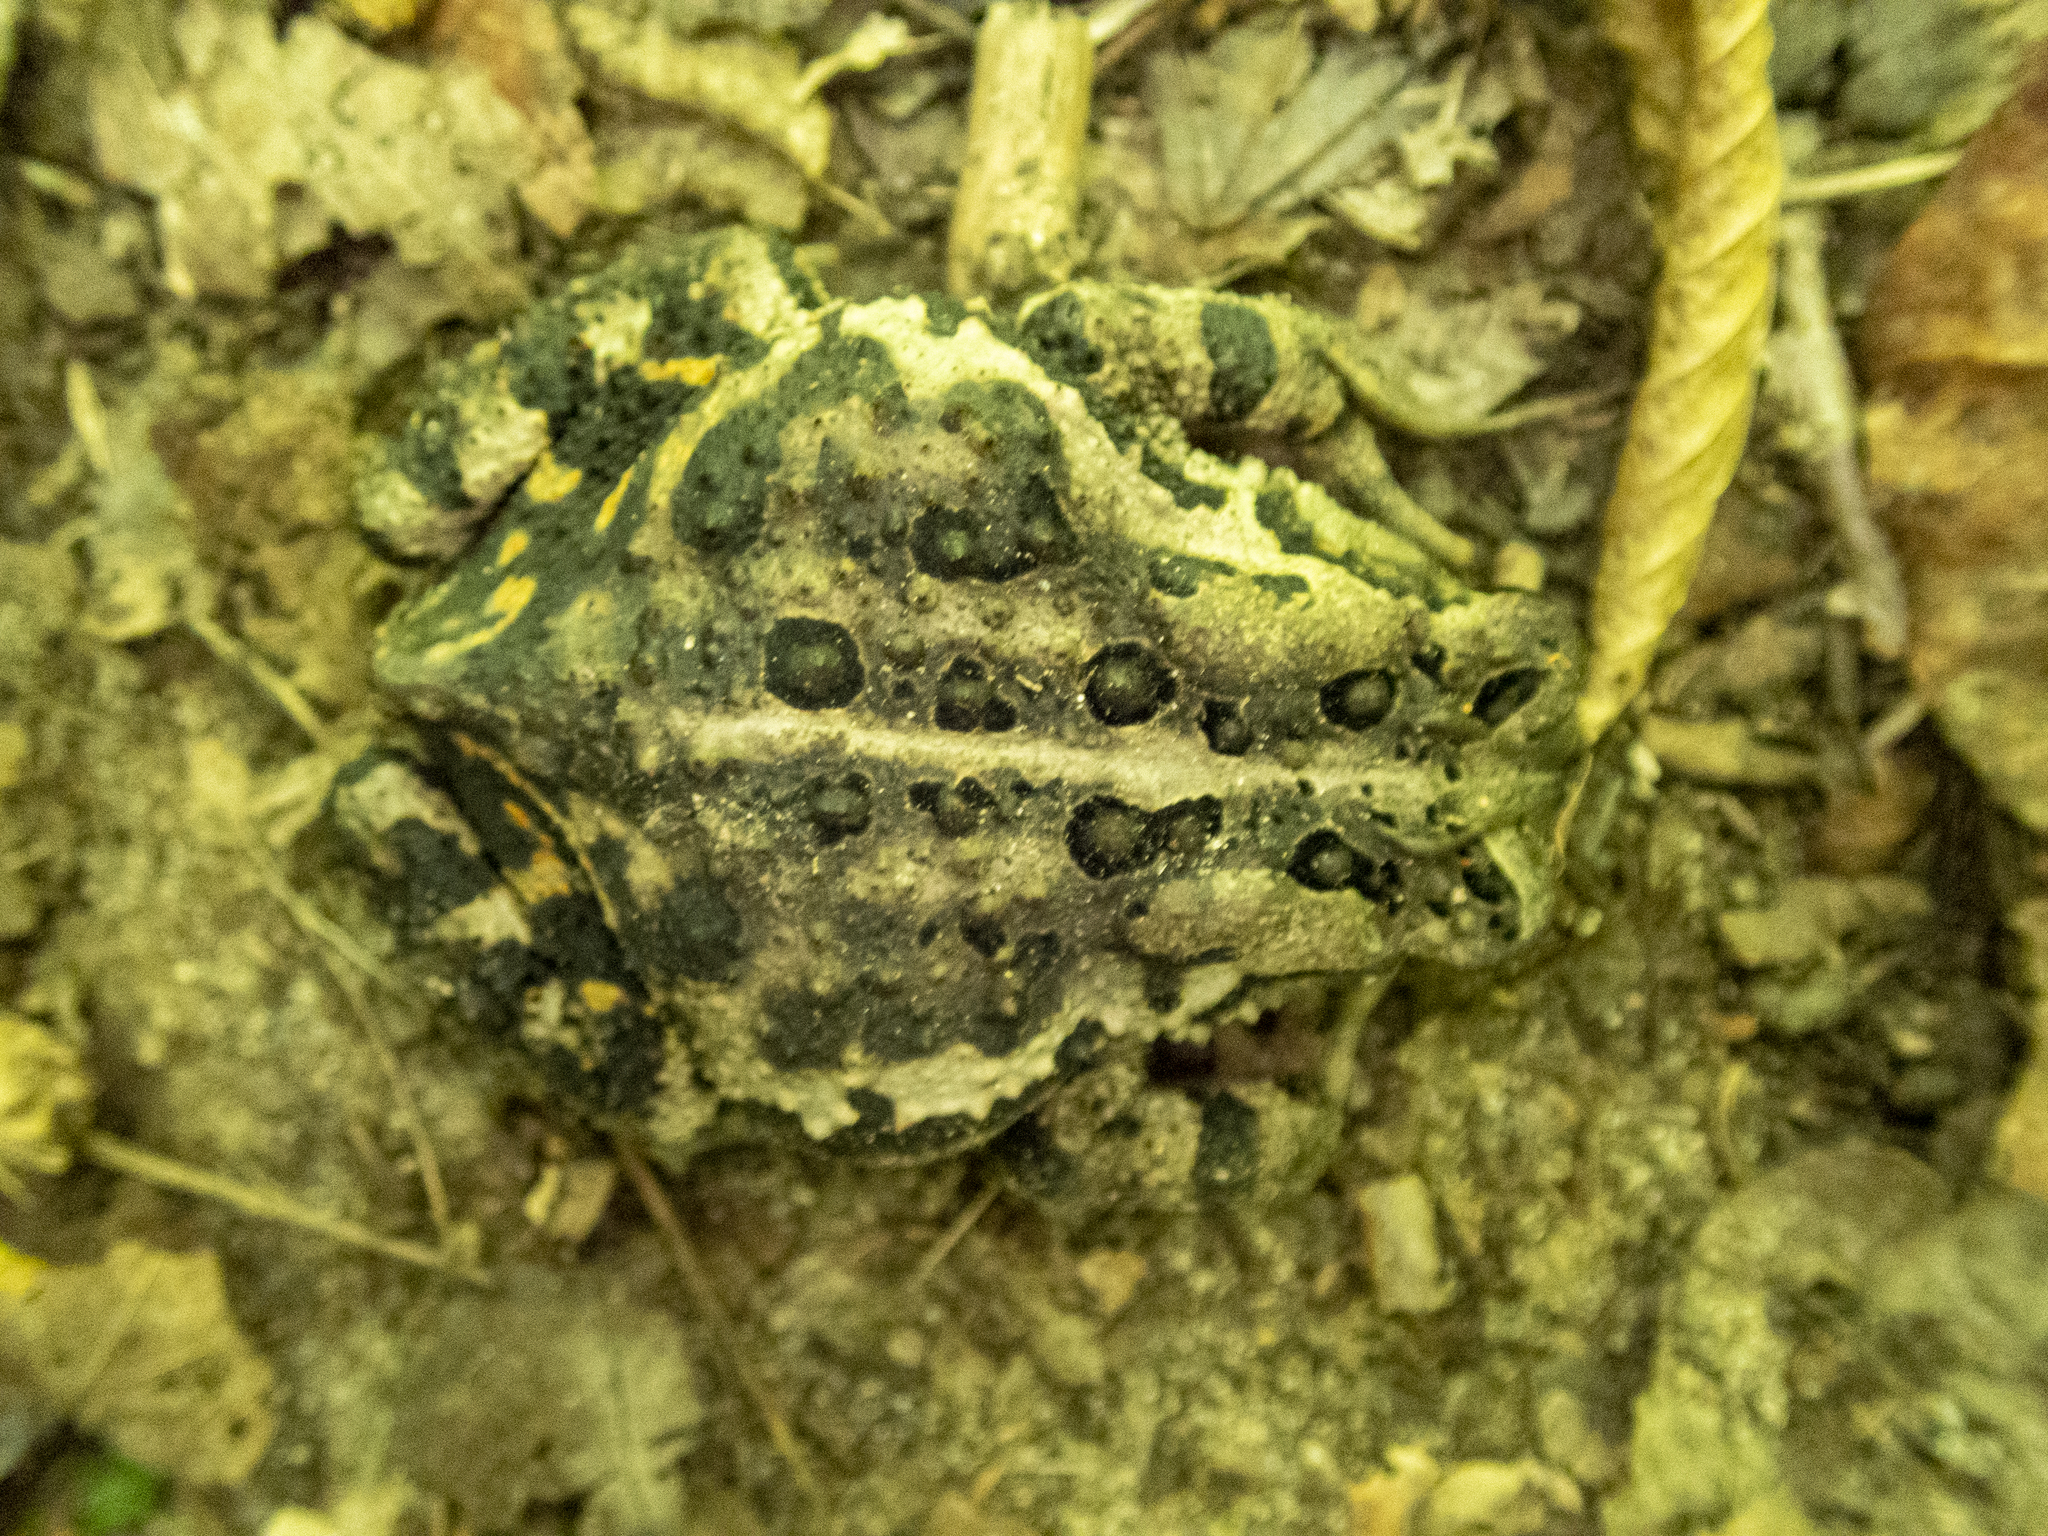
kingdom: Animalia
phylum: Chordata
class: Amphibia
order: Anura
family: Bufonidae
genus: Anaxyrus
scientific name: Anaxyrus americanus
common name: American toad
